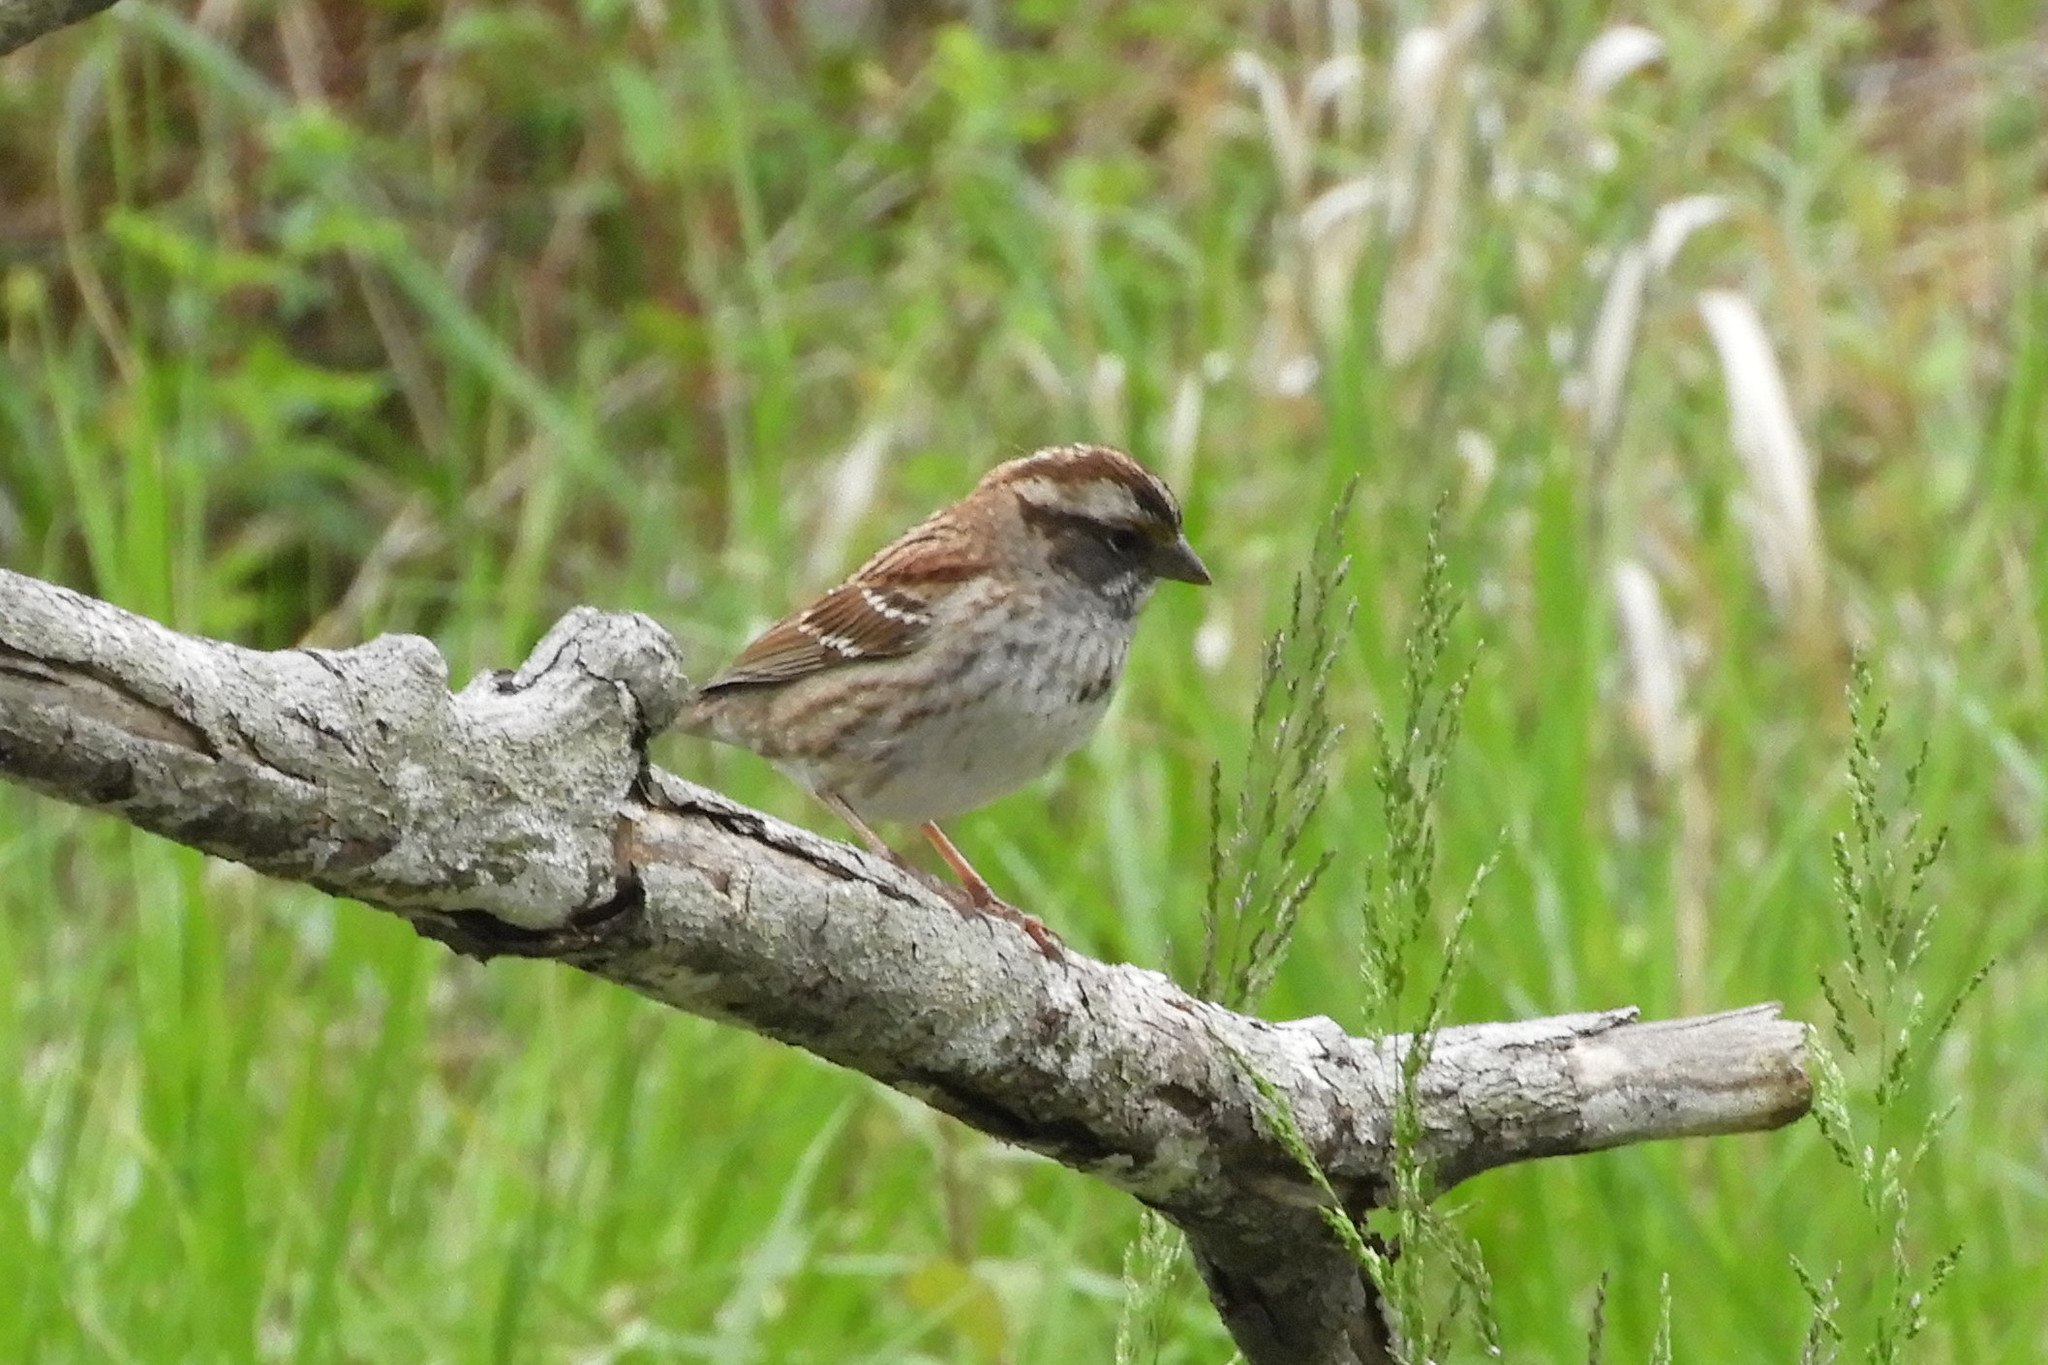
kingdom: Animalia
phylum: Chordata
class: Aves
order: Passeriformes
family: Passerellidae
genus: Zonotrichia
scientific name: Zonotrichia albicollis
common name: White-throated sparrow
